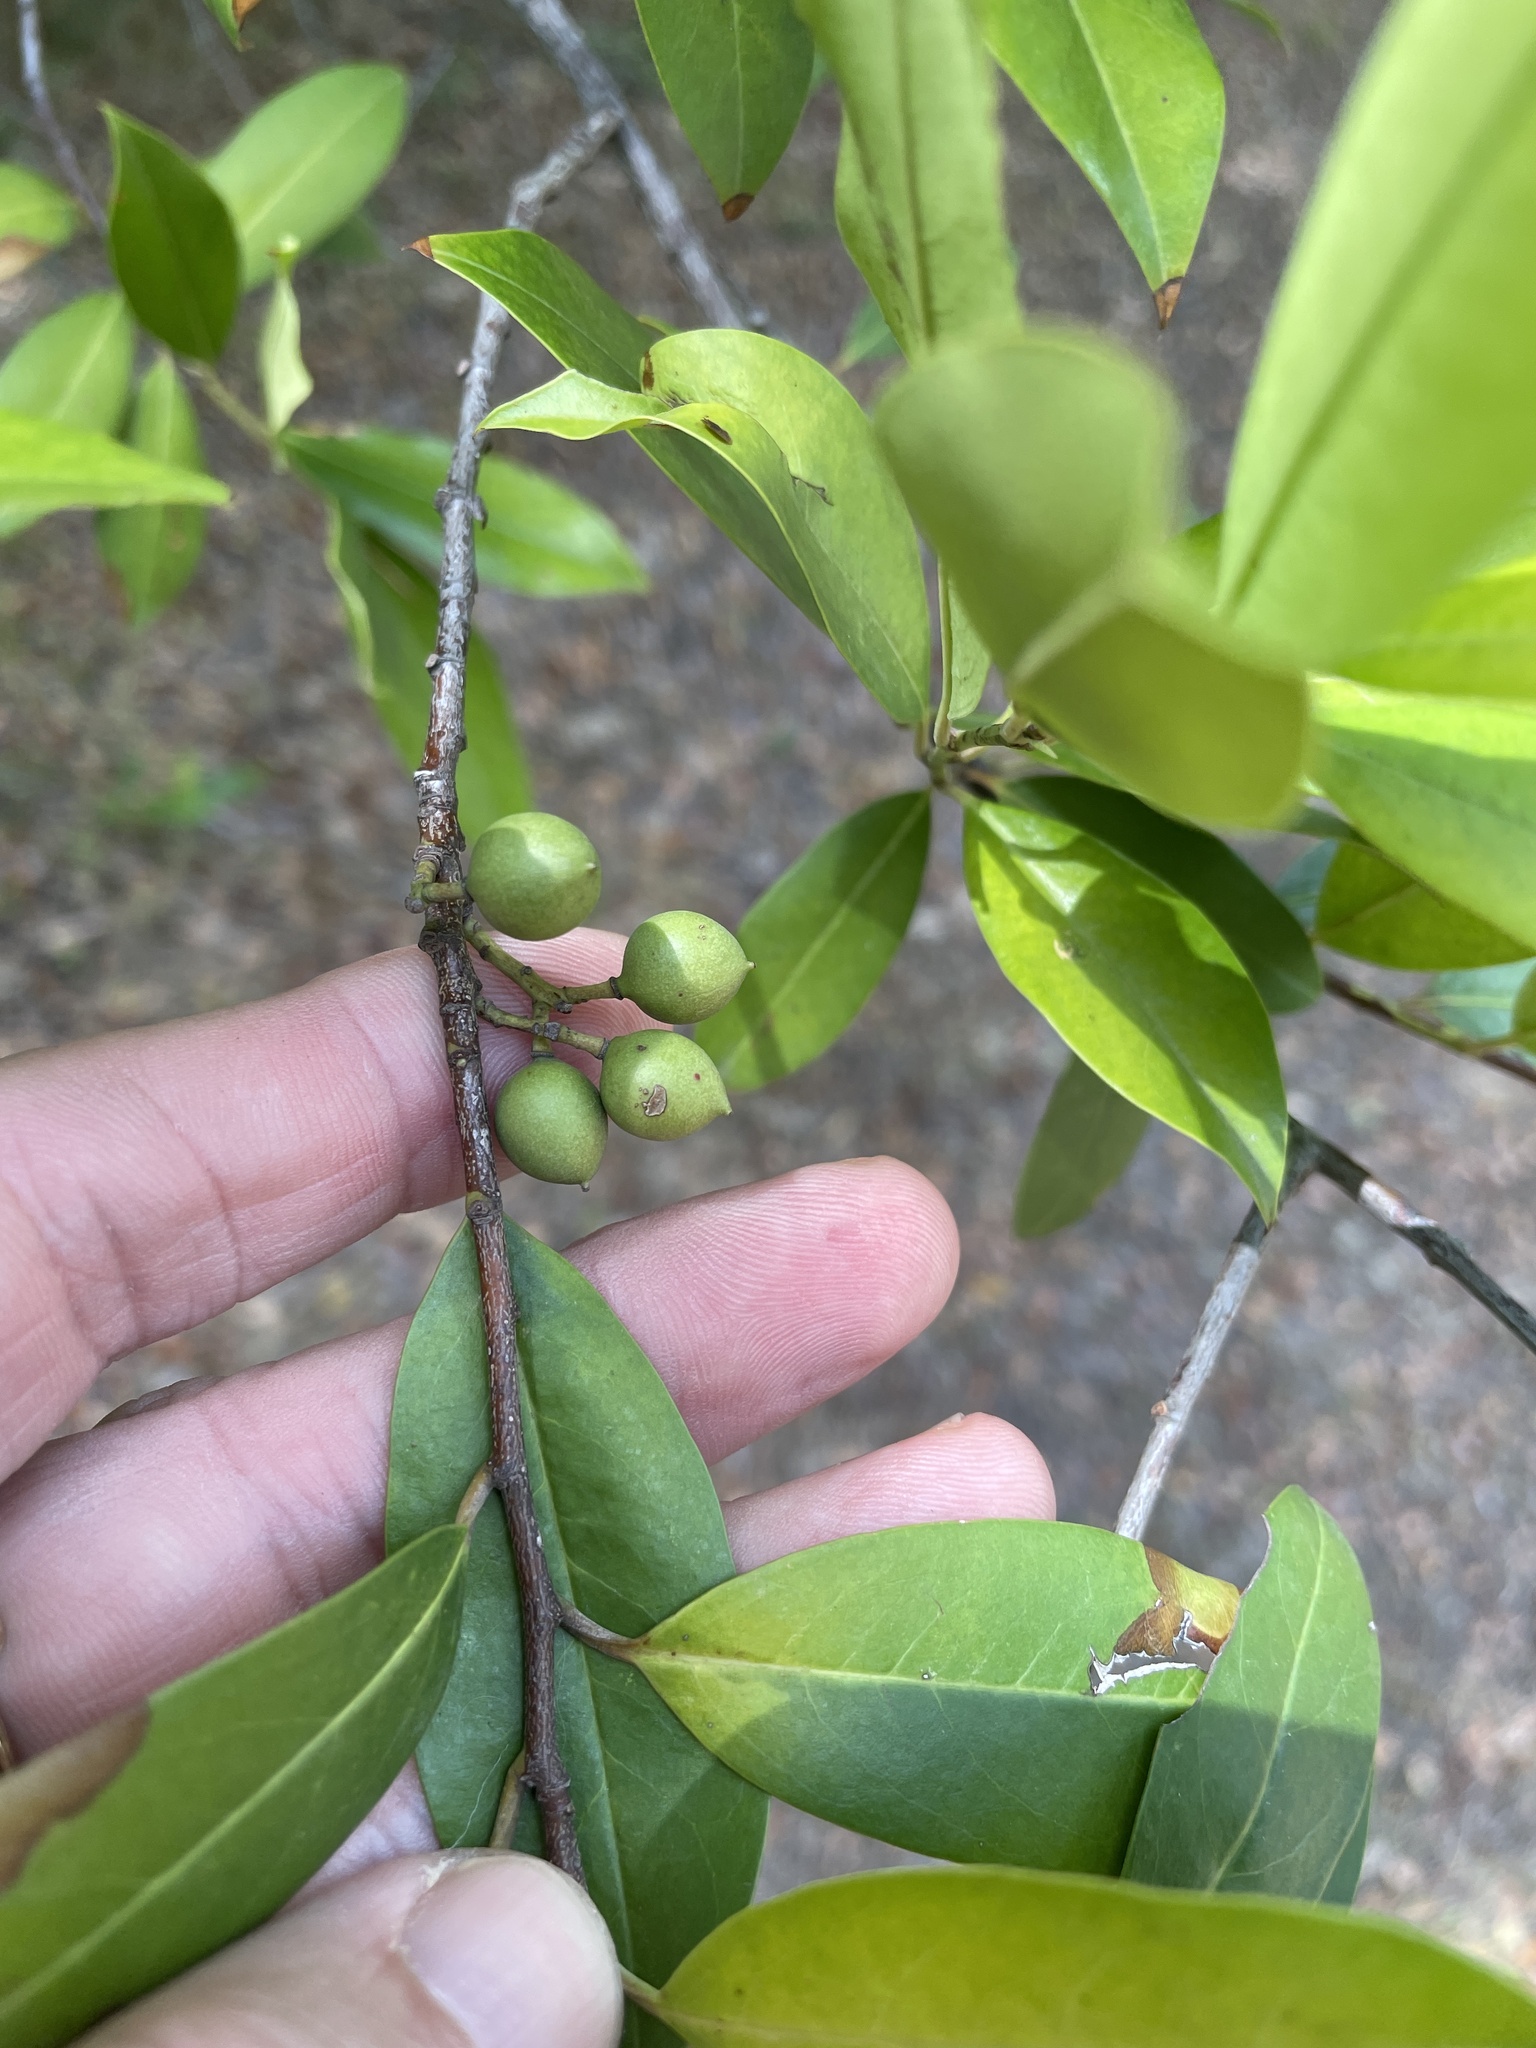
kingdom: Plantae
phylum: Tracheophyta
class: Magnoliopsida
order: Rosales
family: Rosaceae
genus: Prunus
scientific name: Prunus caroliniana
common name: Carolina laurel cherry
